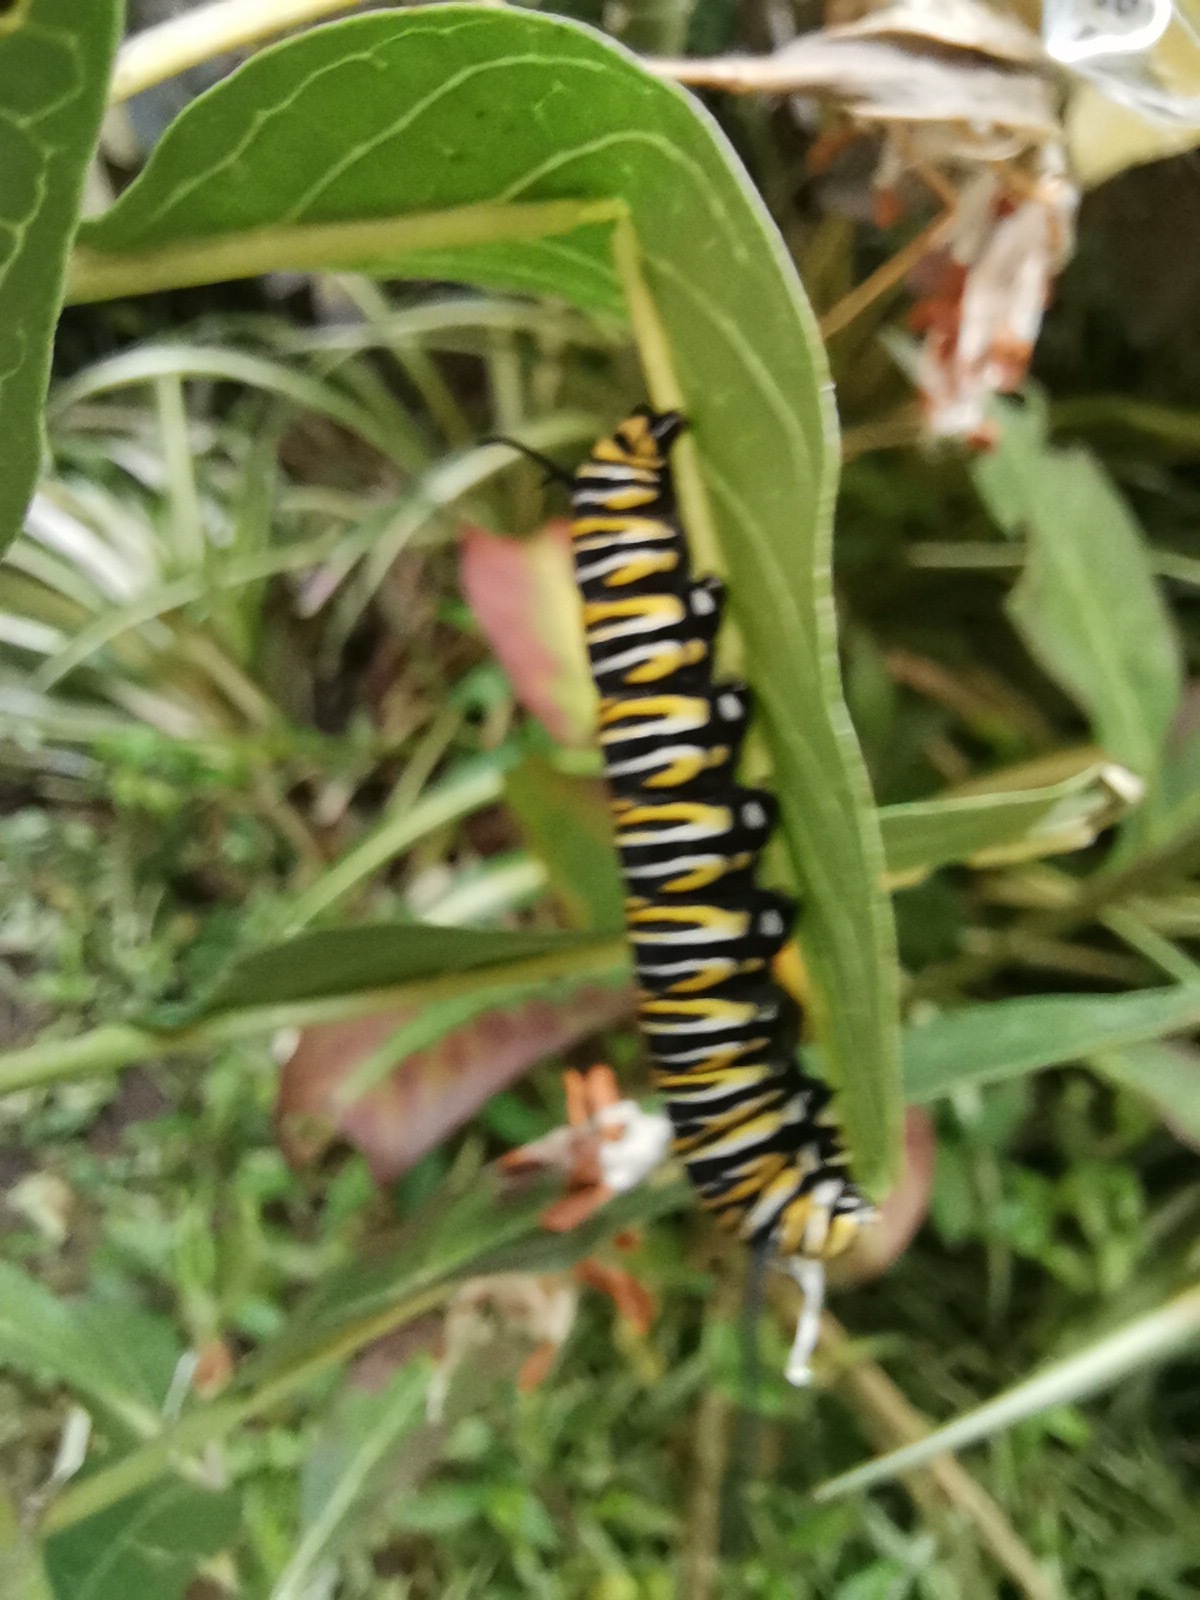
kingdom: Animalia
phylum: Arthropoda
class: Insecta
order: Lepidoptera
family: Nymphalidae
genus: Danaus
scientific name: Danaus plexippus
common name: Monarch
